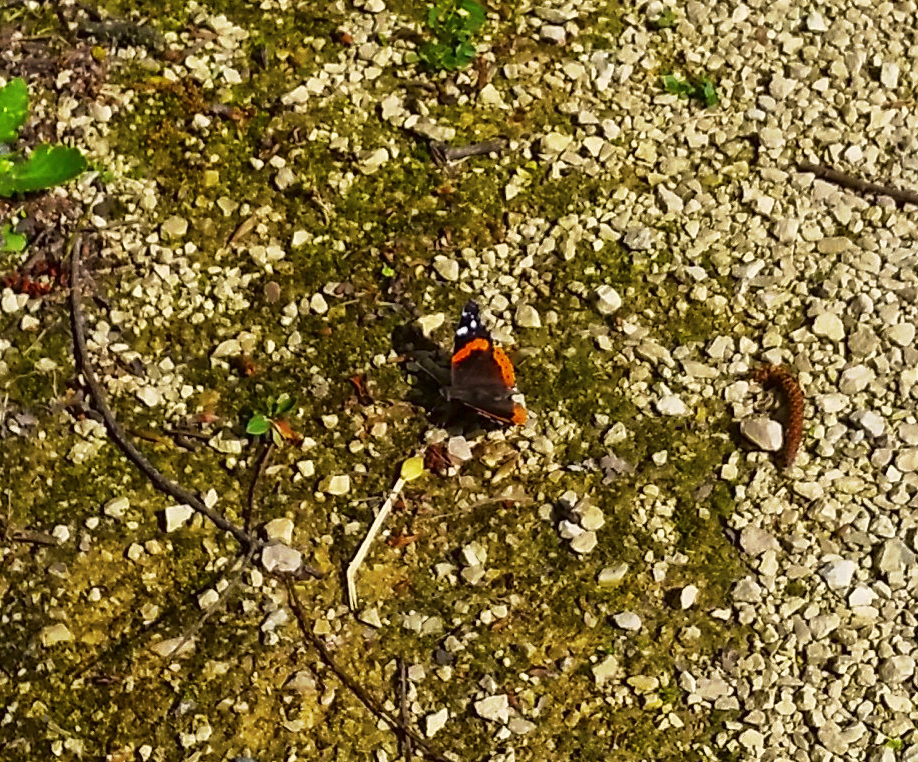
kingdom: Animalia
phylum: Arthropoda
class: Insecta
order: Lepidoptera
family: Nymphalidae
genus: Vanessa
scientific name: Vanessa atalanta
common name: Red admiral
